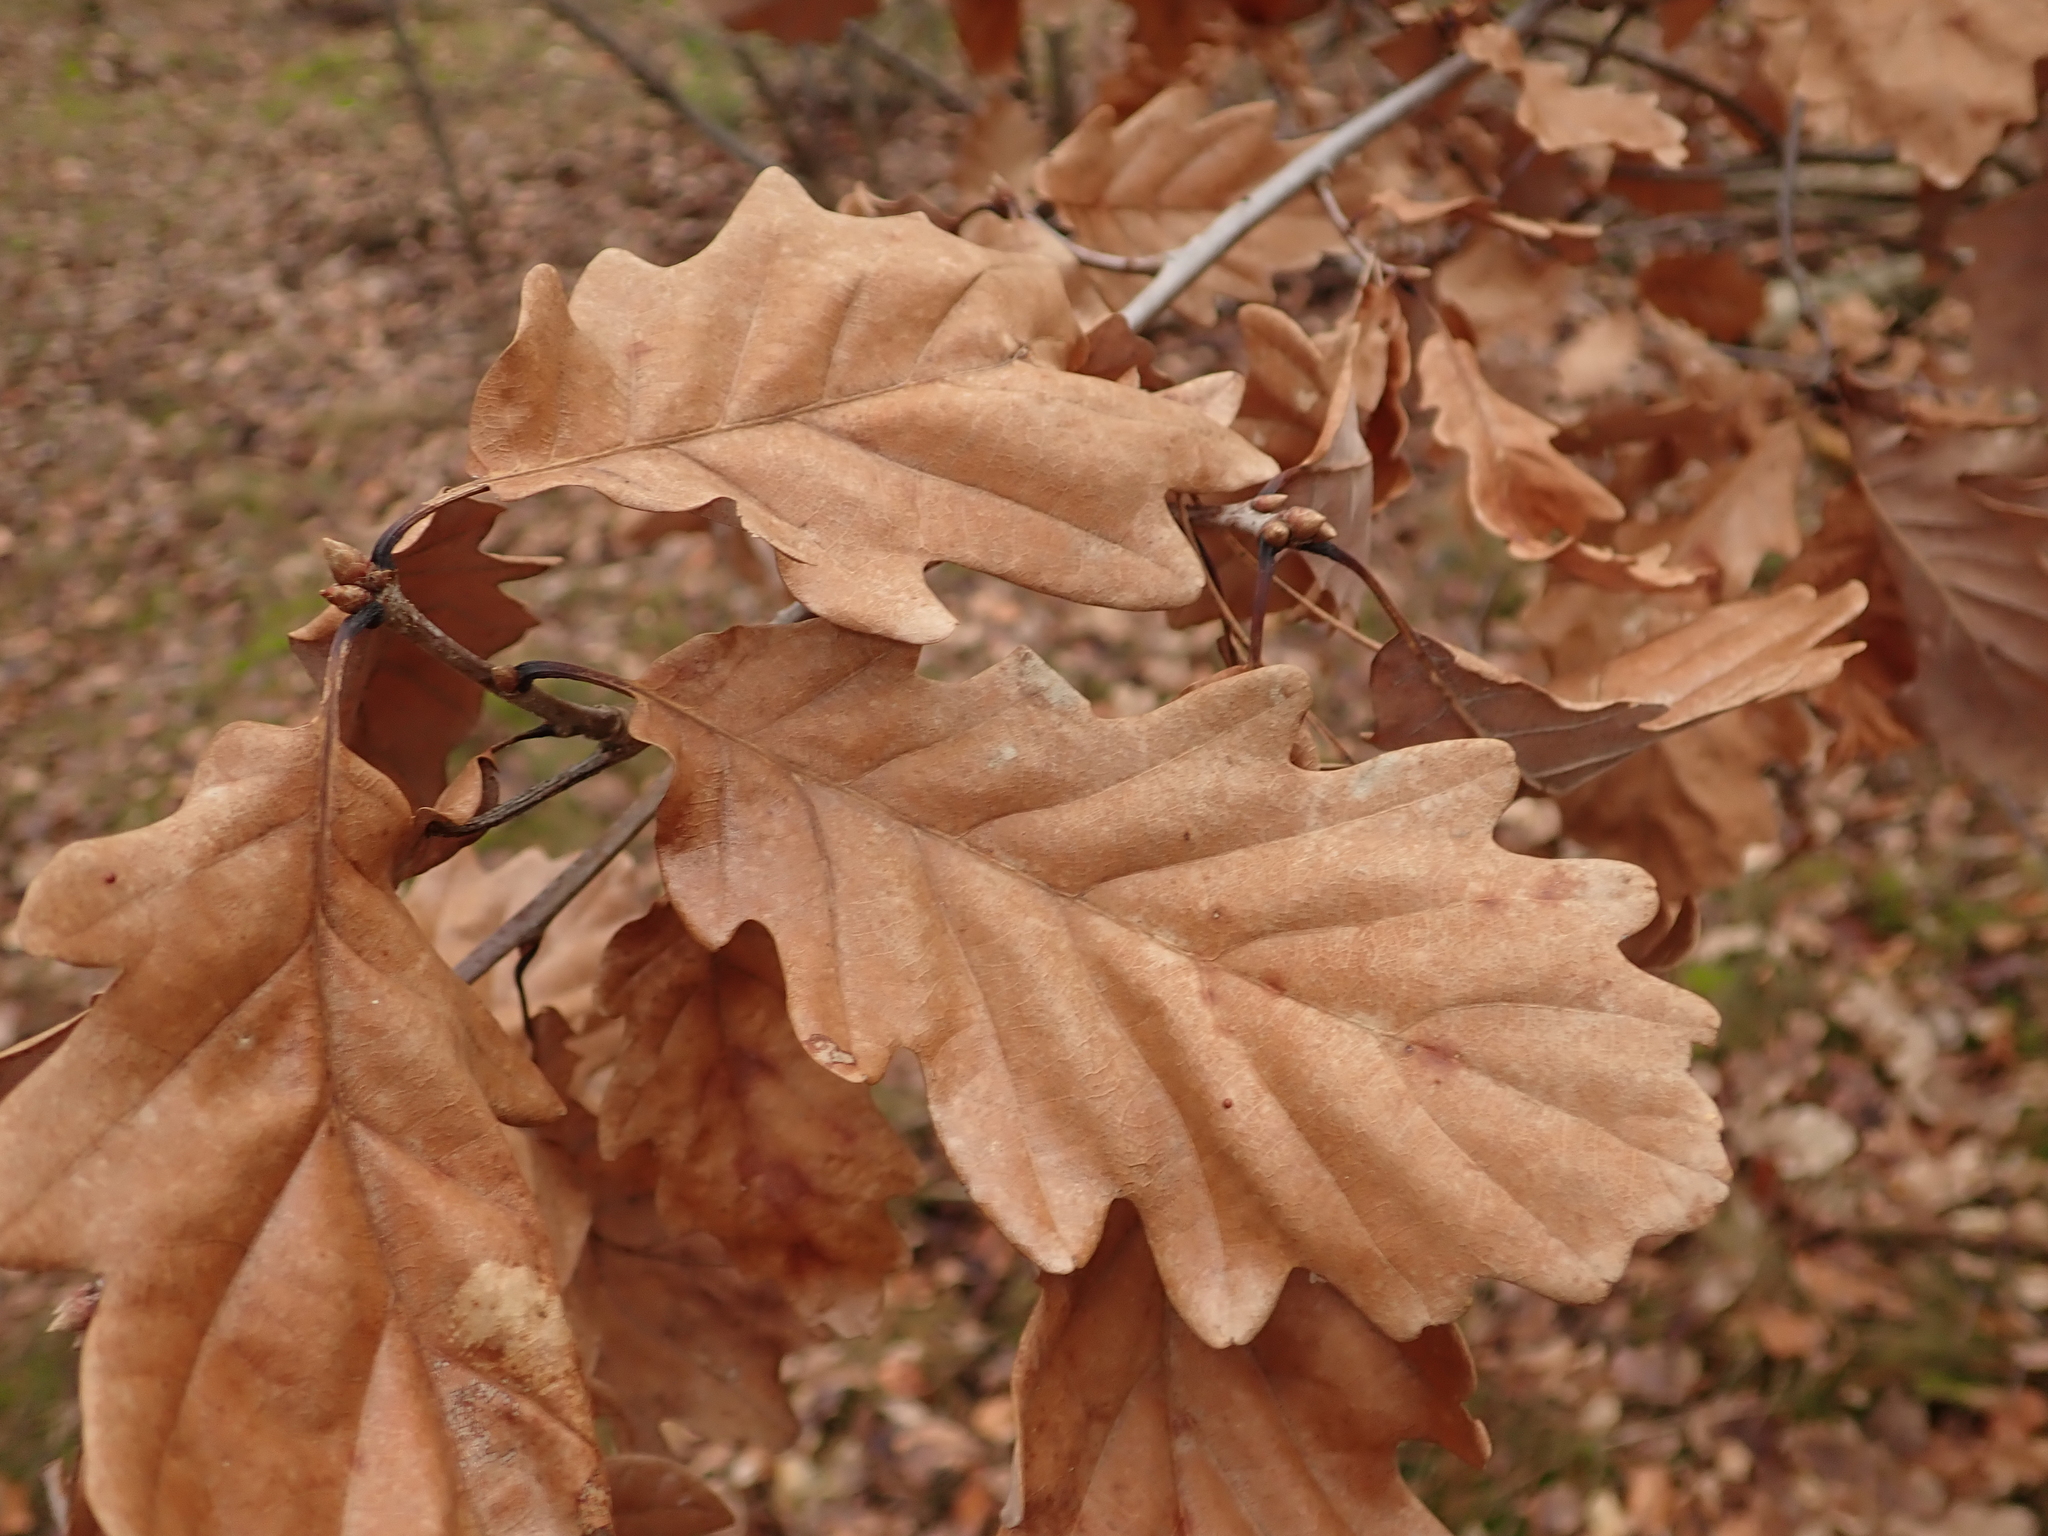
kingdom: Plantae
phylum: Tracheophyta
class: Magnoliopsida
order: Fagales
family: Fagaceae
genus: Quercus
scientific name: Quercus petraea
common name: Sessile oak
